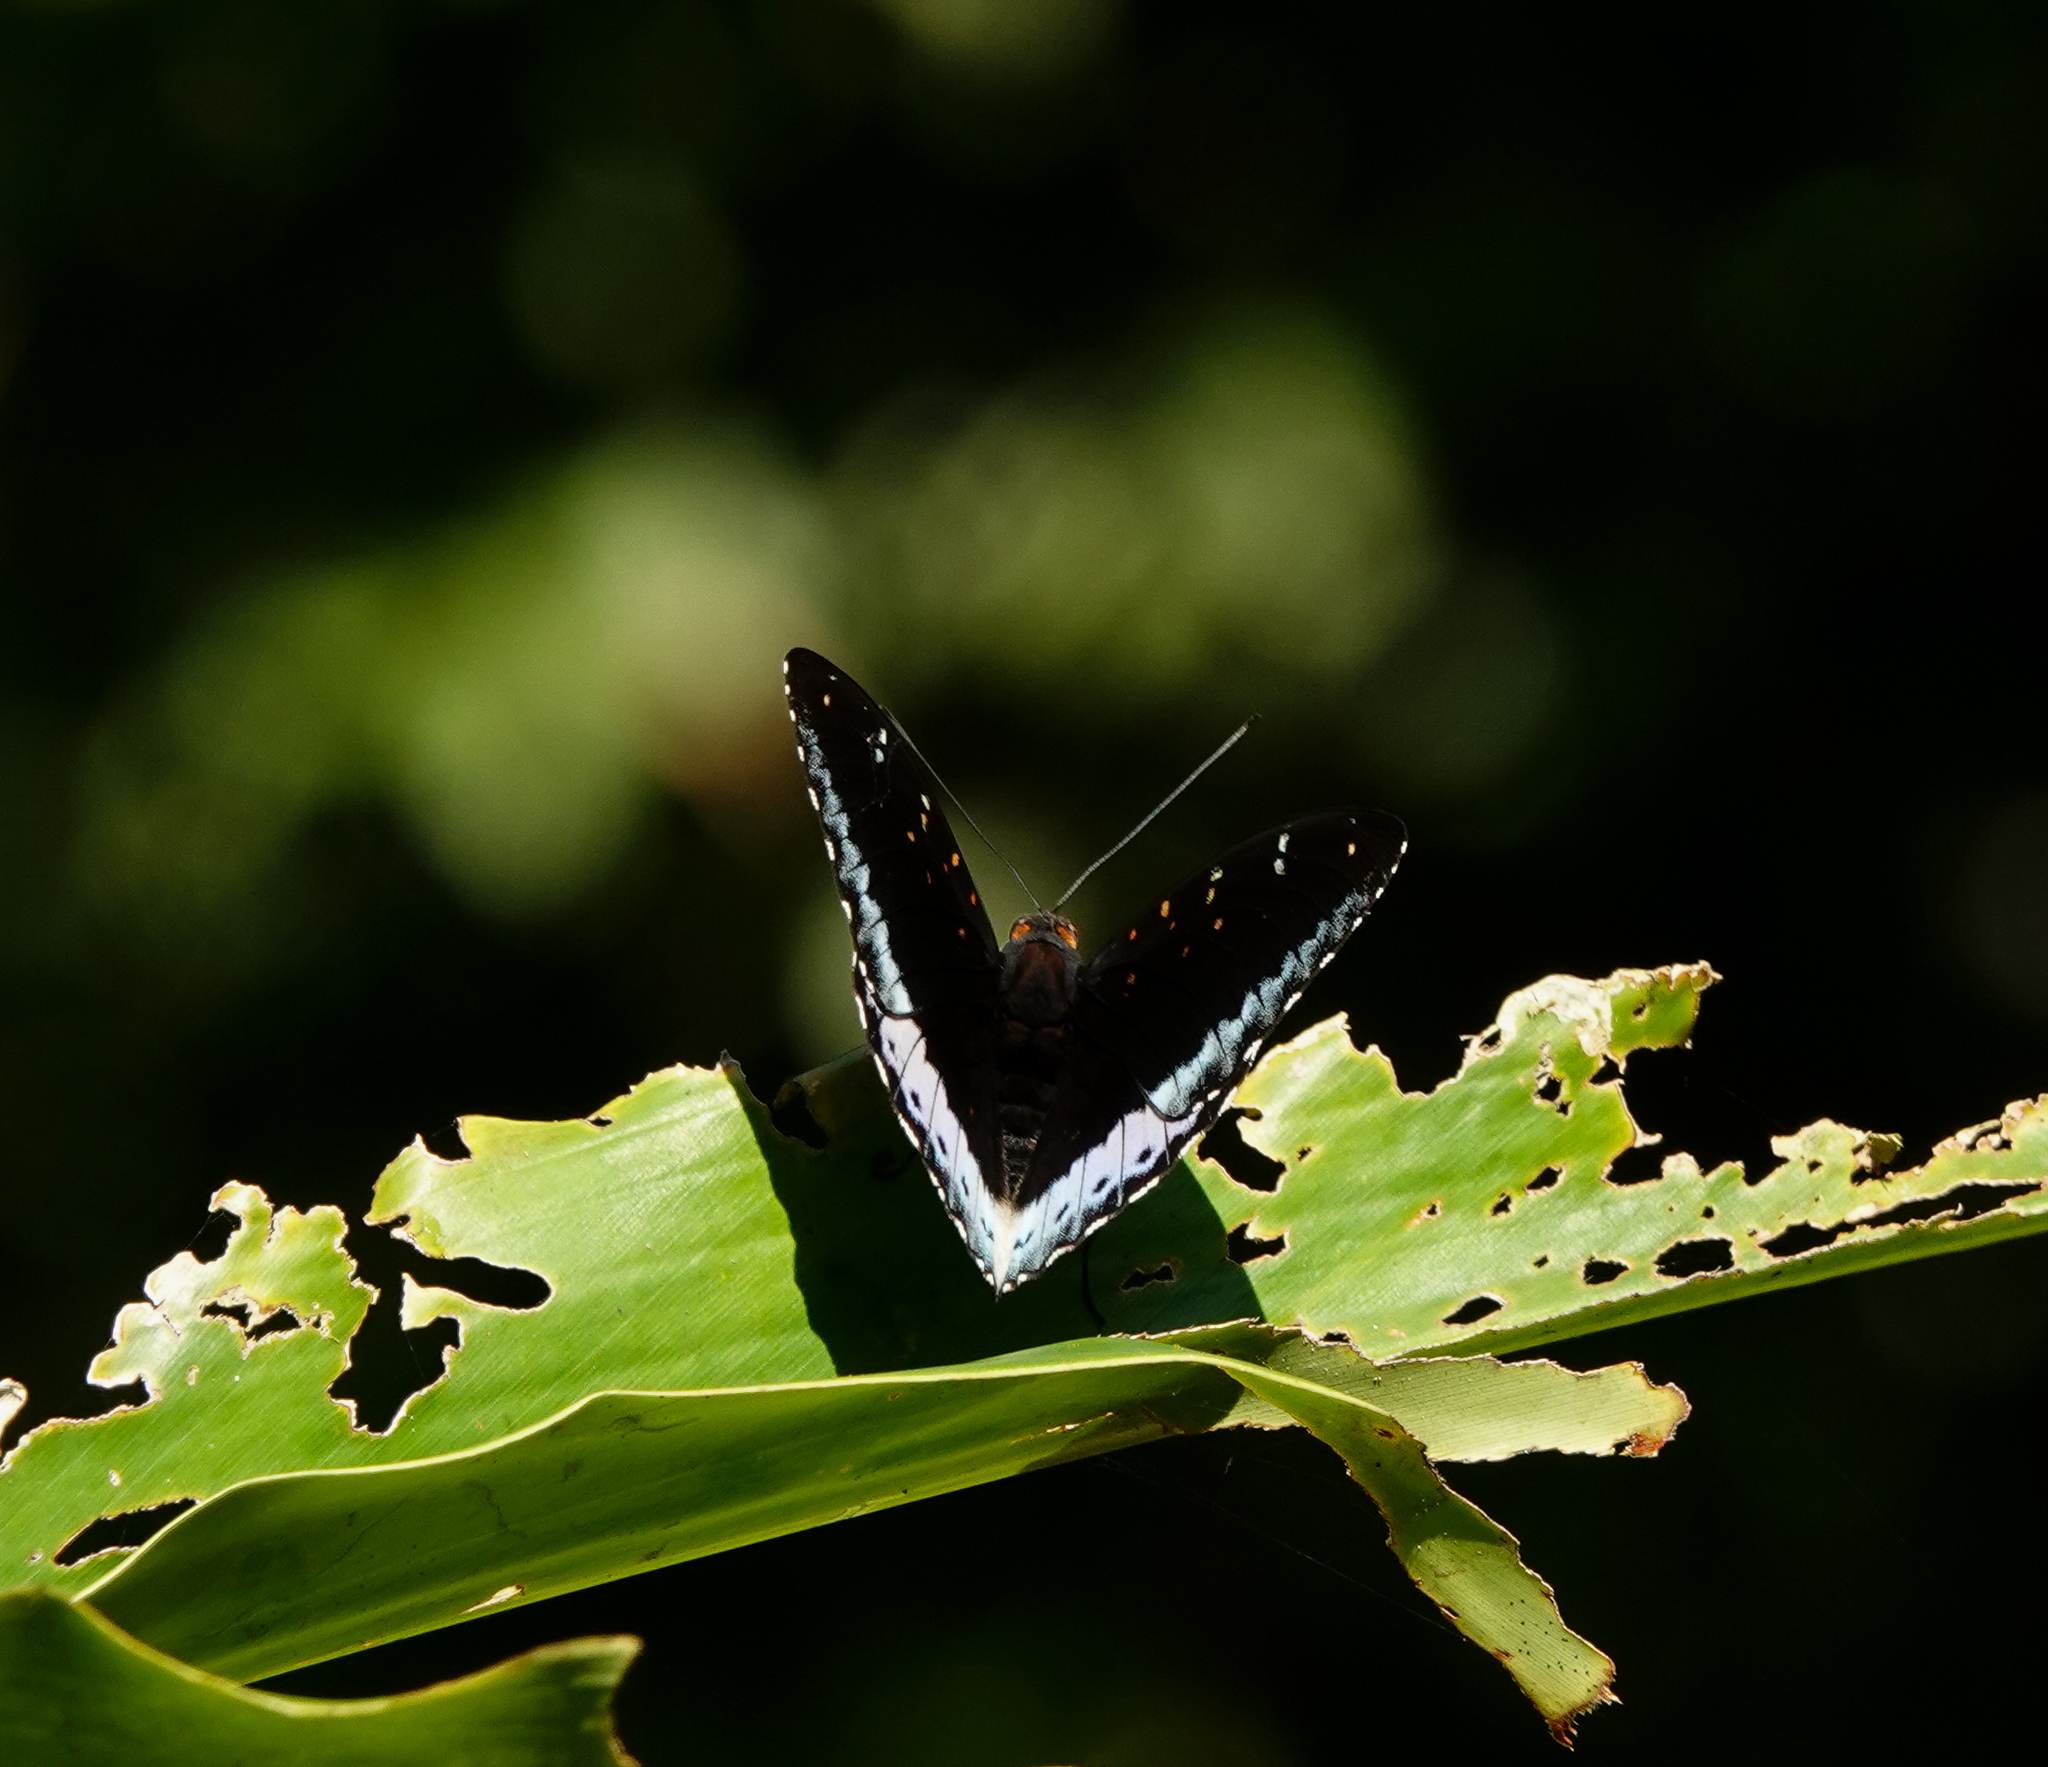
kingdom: Animalia
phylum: Arthropoda
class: Insecta
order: Lepidoptera
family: Nymphalidae
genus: Lexias
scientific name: Lexias dirtea
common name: Black-tipped archduke
